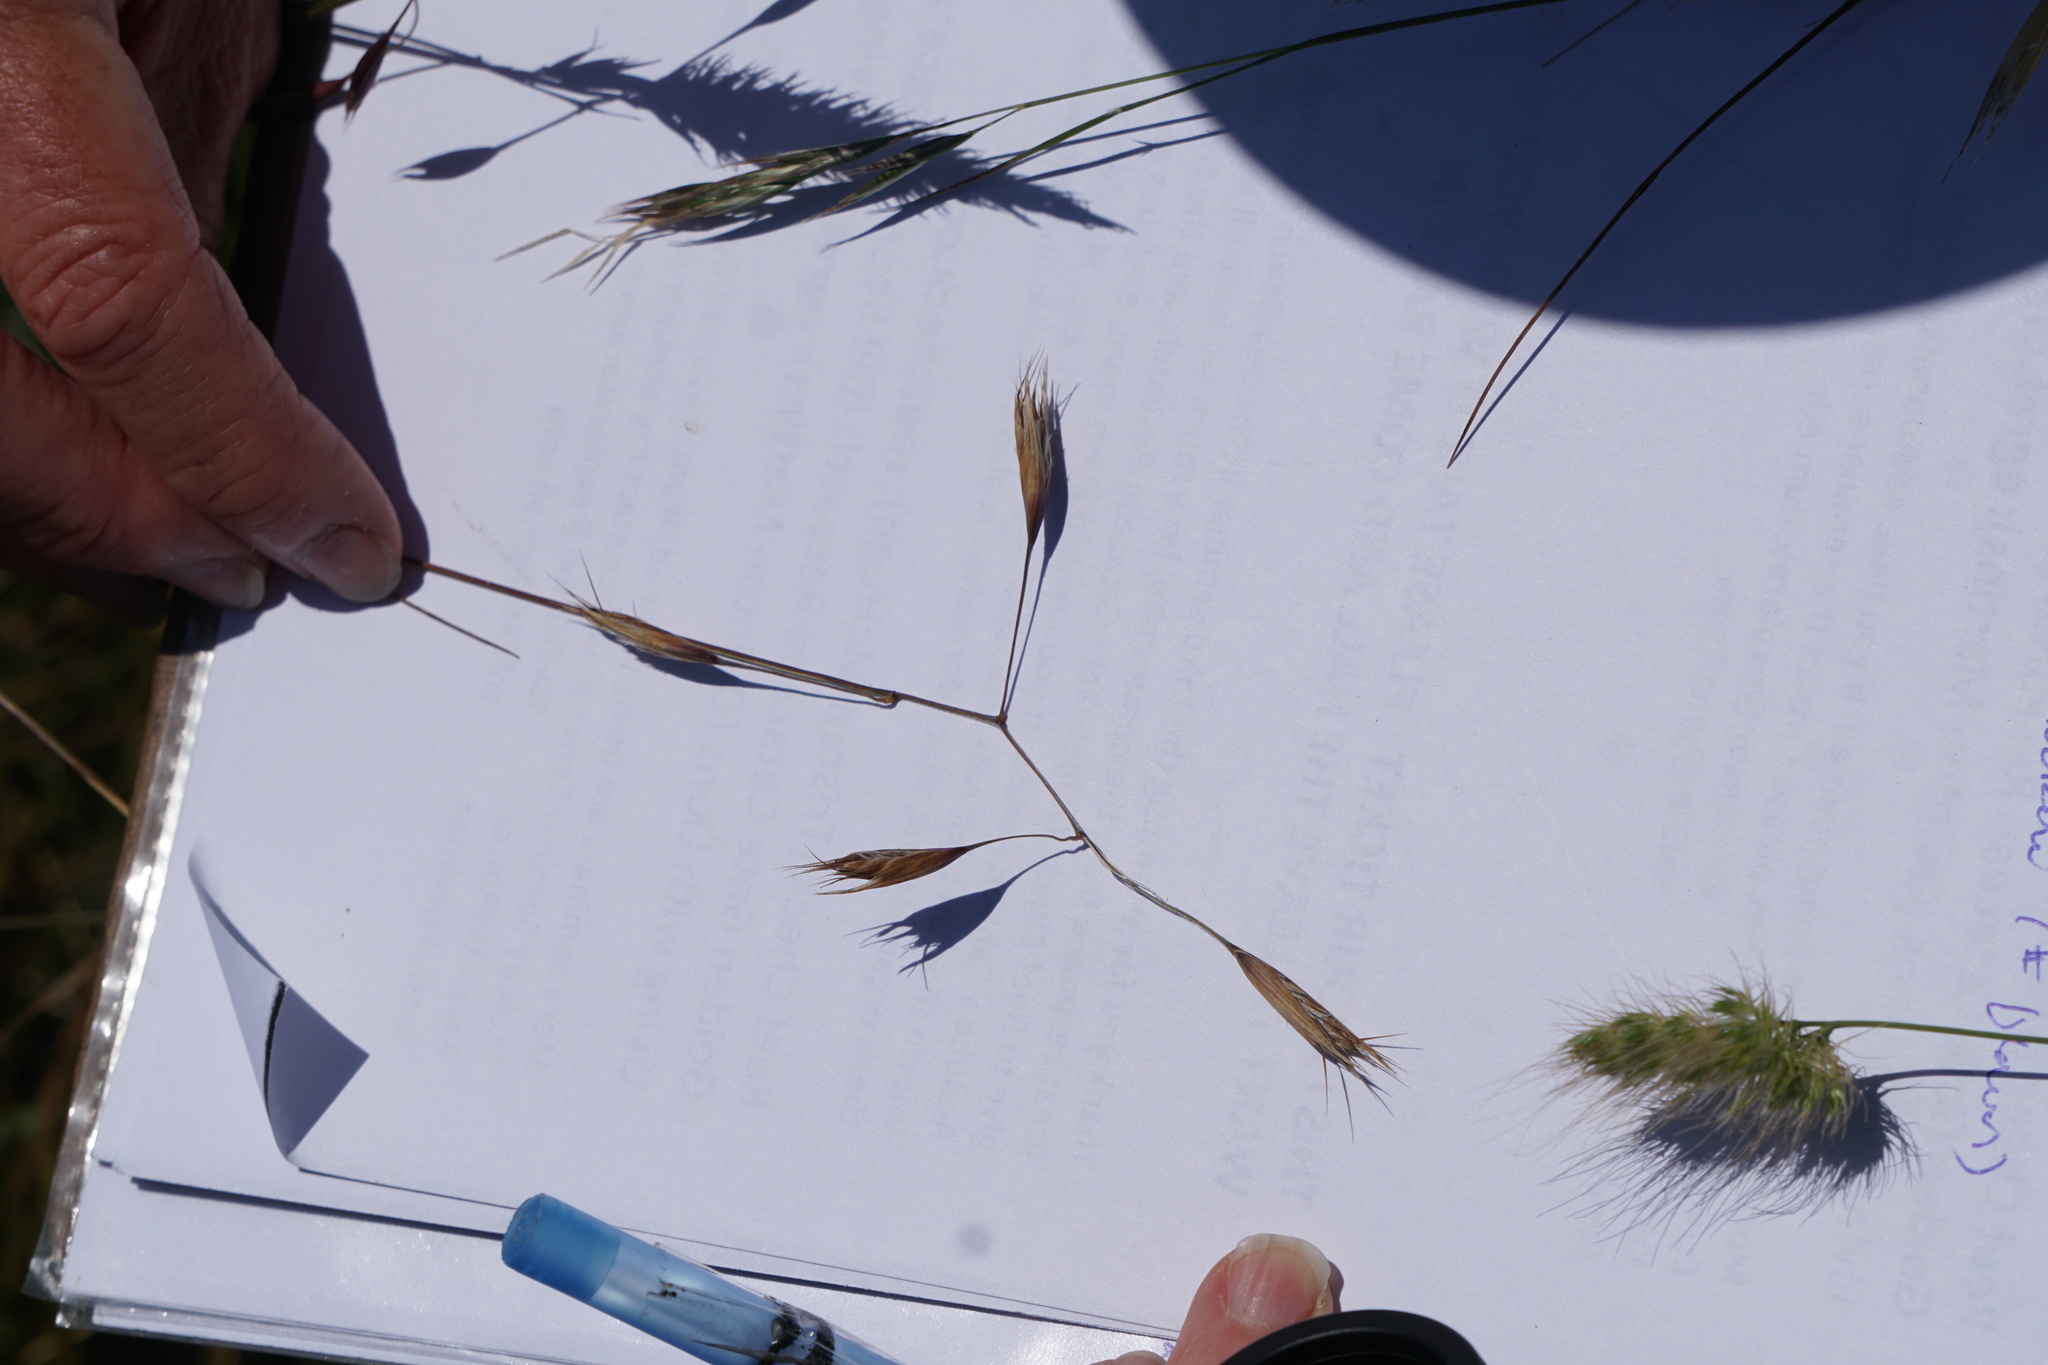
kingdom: Plantae
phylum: Tracheophyta
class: Liliopsida
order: Poales
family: Poaceae
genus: Danthonia
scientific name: Danthonia californica
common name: California oat grass
